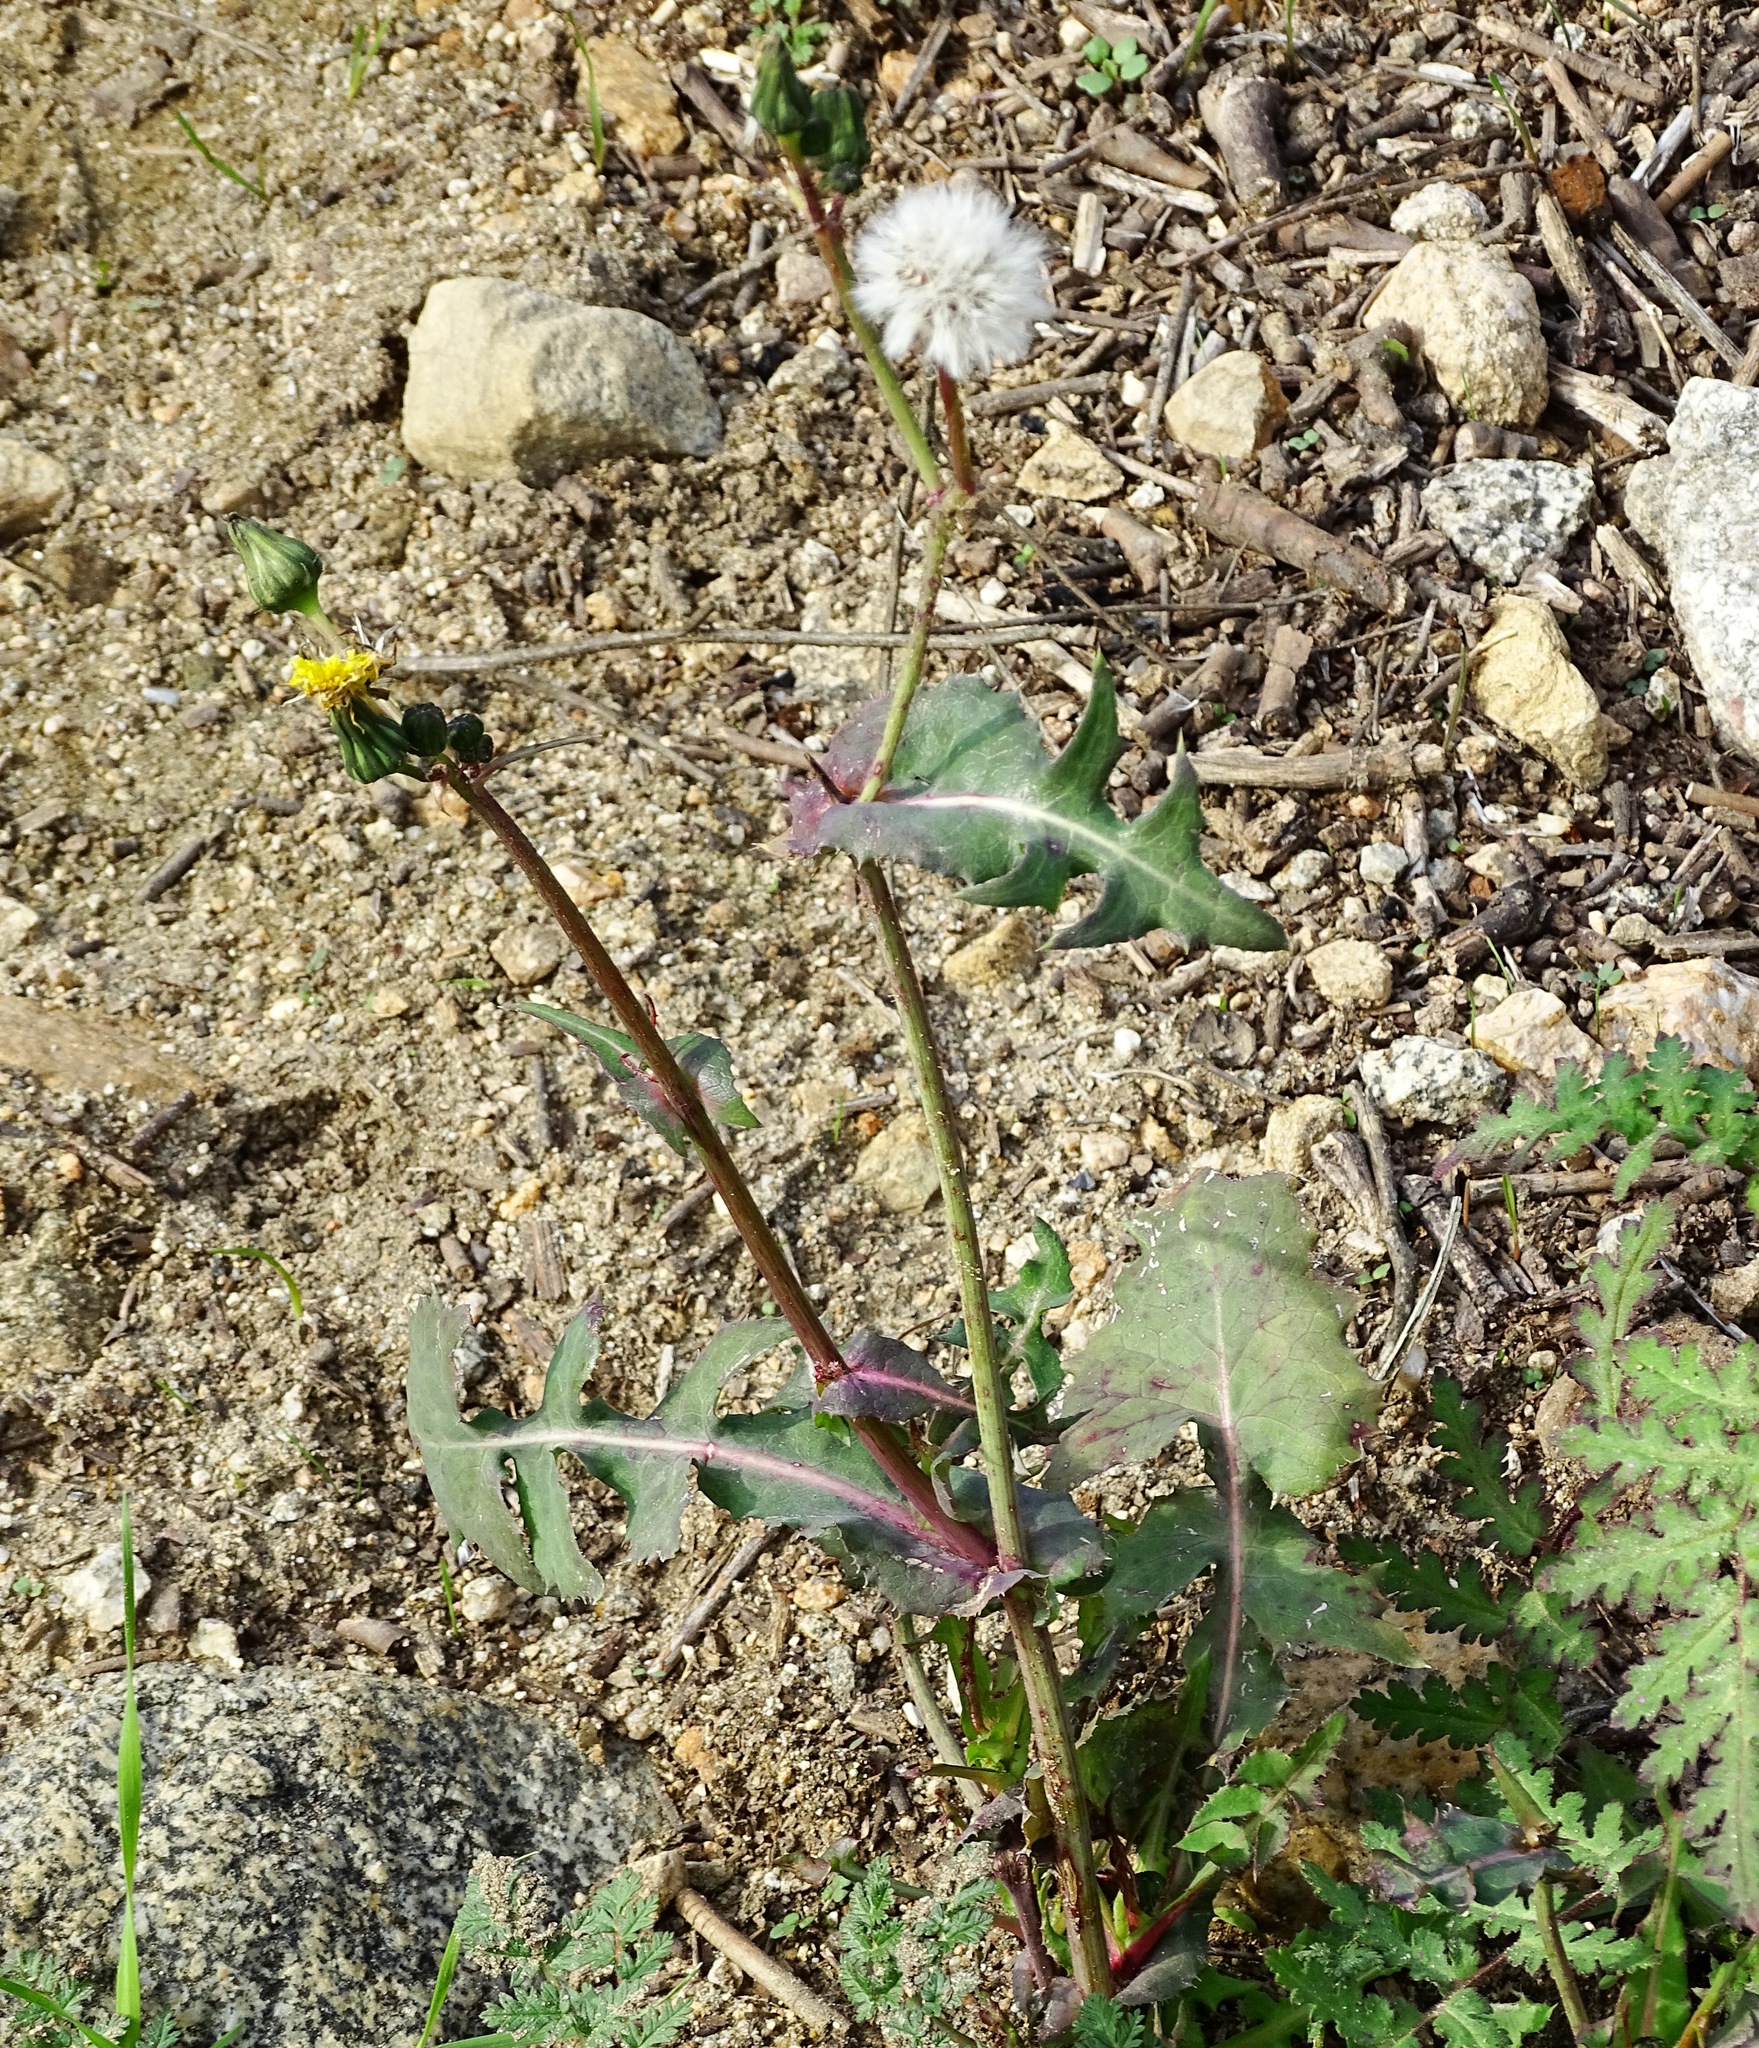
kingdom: Plantae
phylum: Tracheophyta
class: Magnoliopsida
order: Asterales
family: Asteraceae
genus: Sonchus
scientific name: Sonchus oleraceus
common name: Common sowthistle
